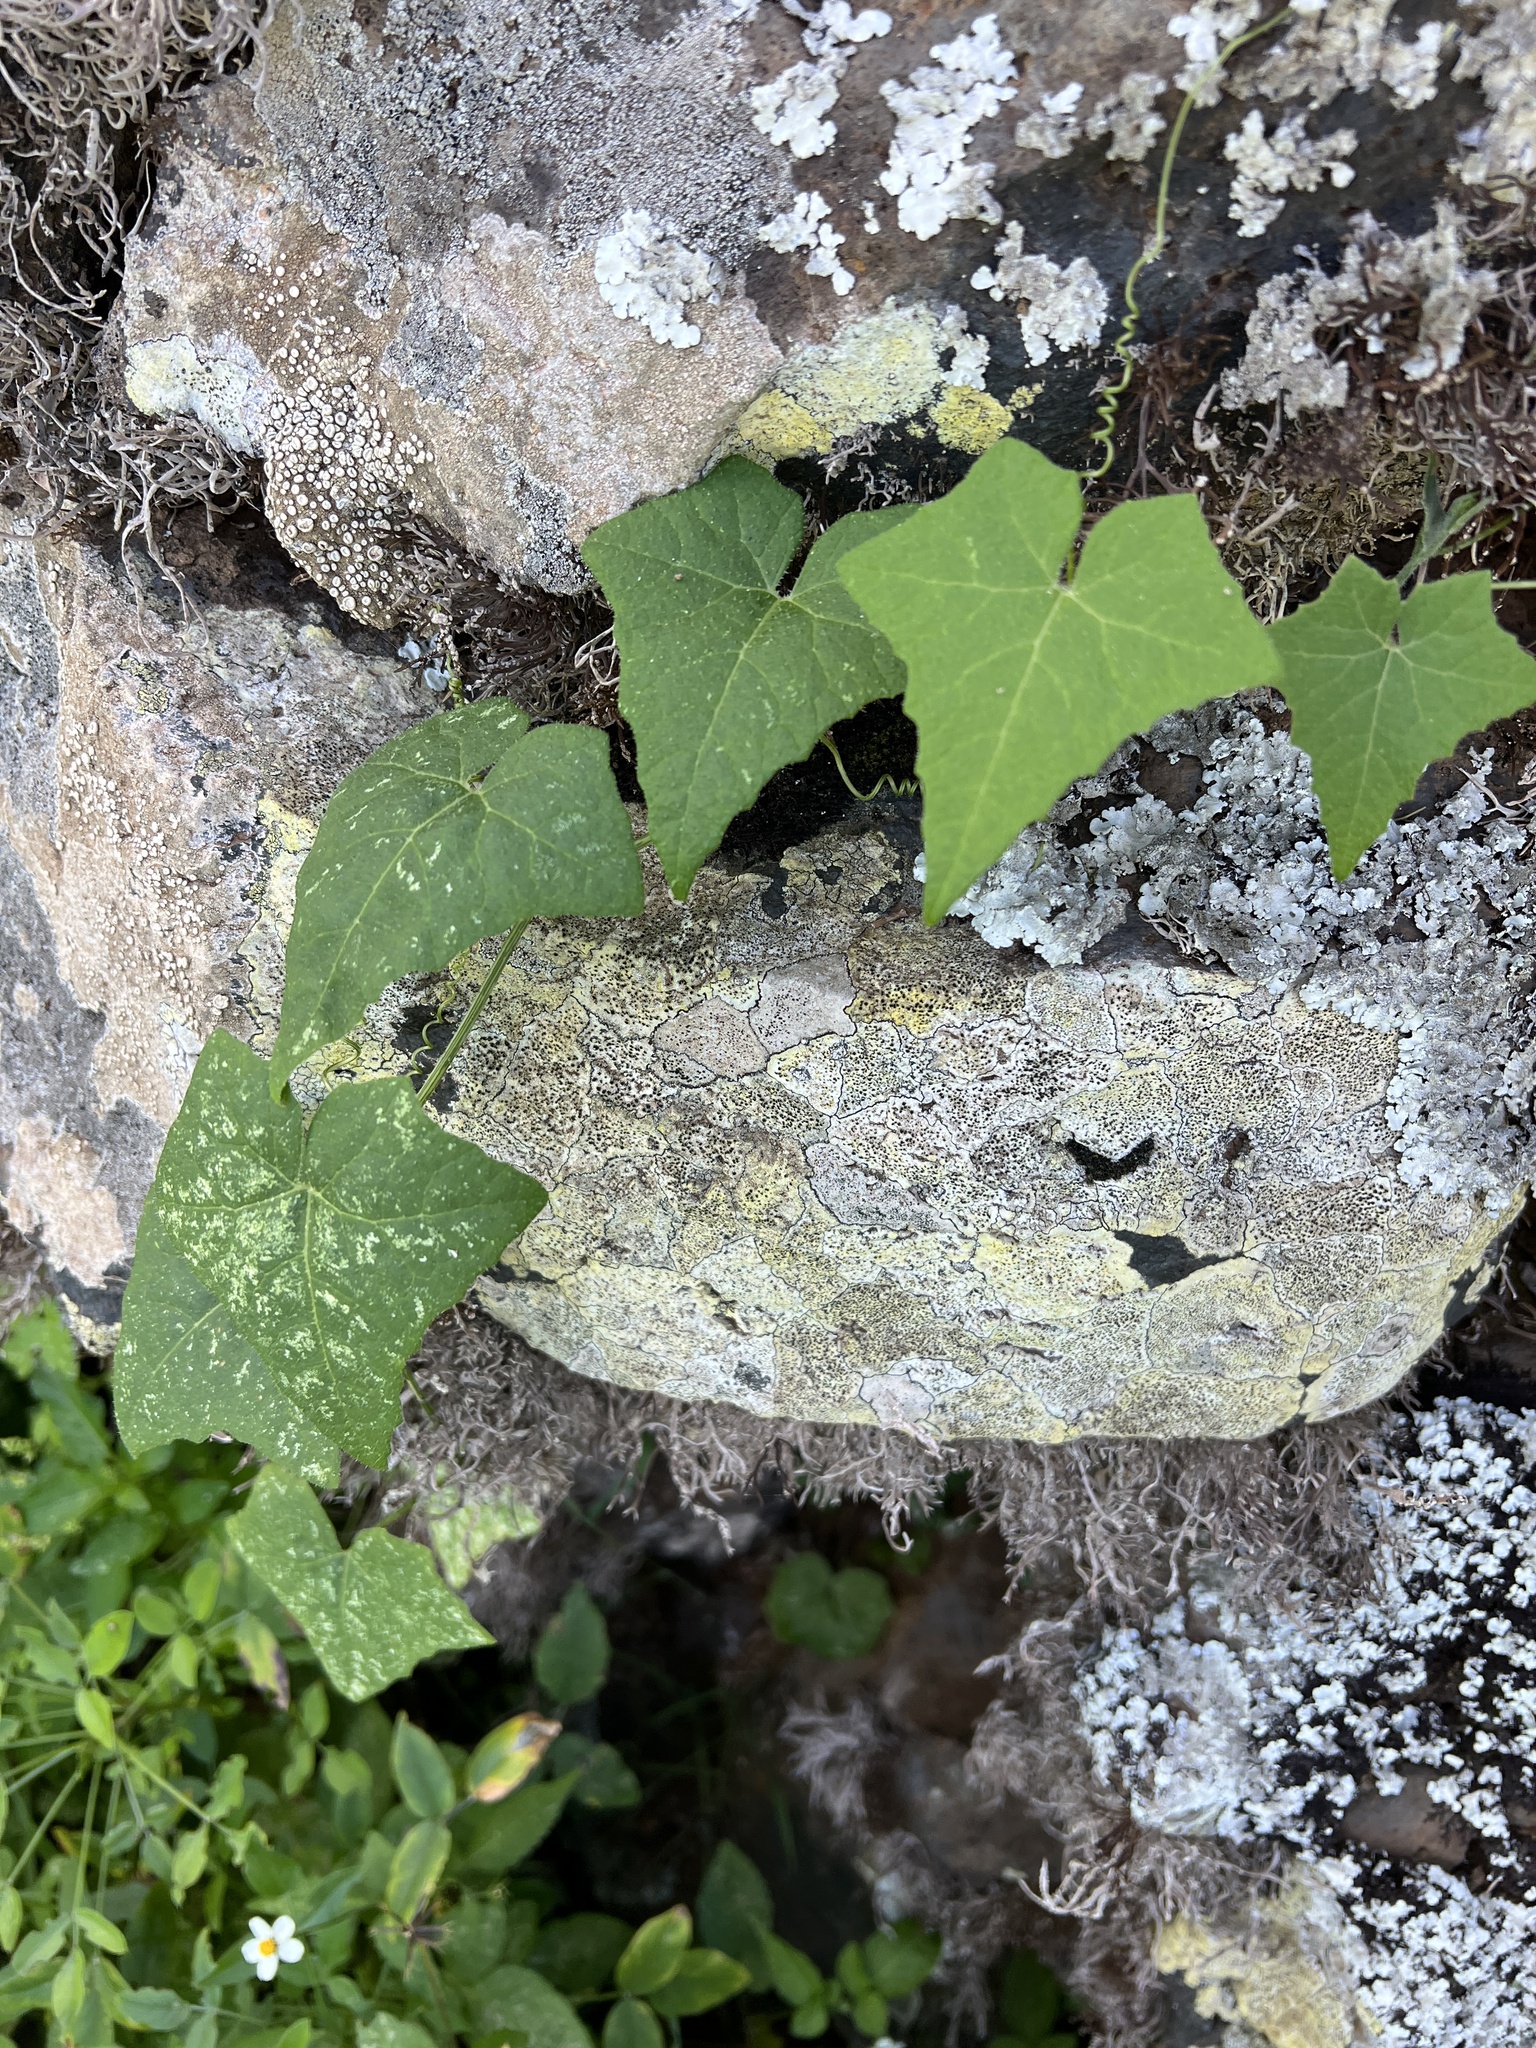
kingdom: Plantae
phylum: Tracheophyta
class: Magnoliopsida
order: Cucurbitales
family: Cucurbitaceae
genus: Bryonia
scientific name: Bryonia verrucosa
